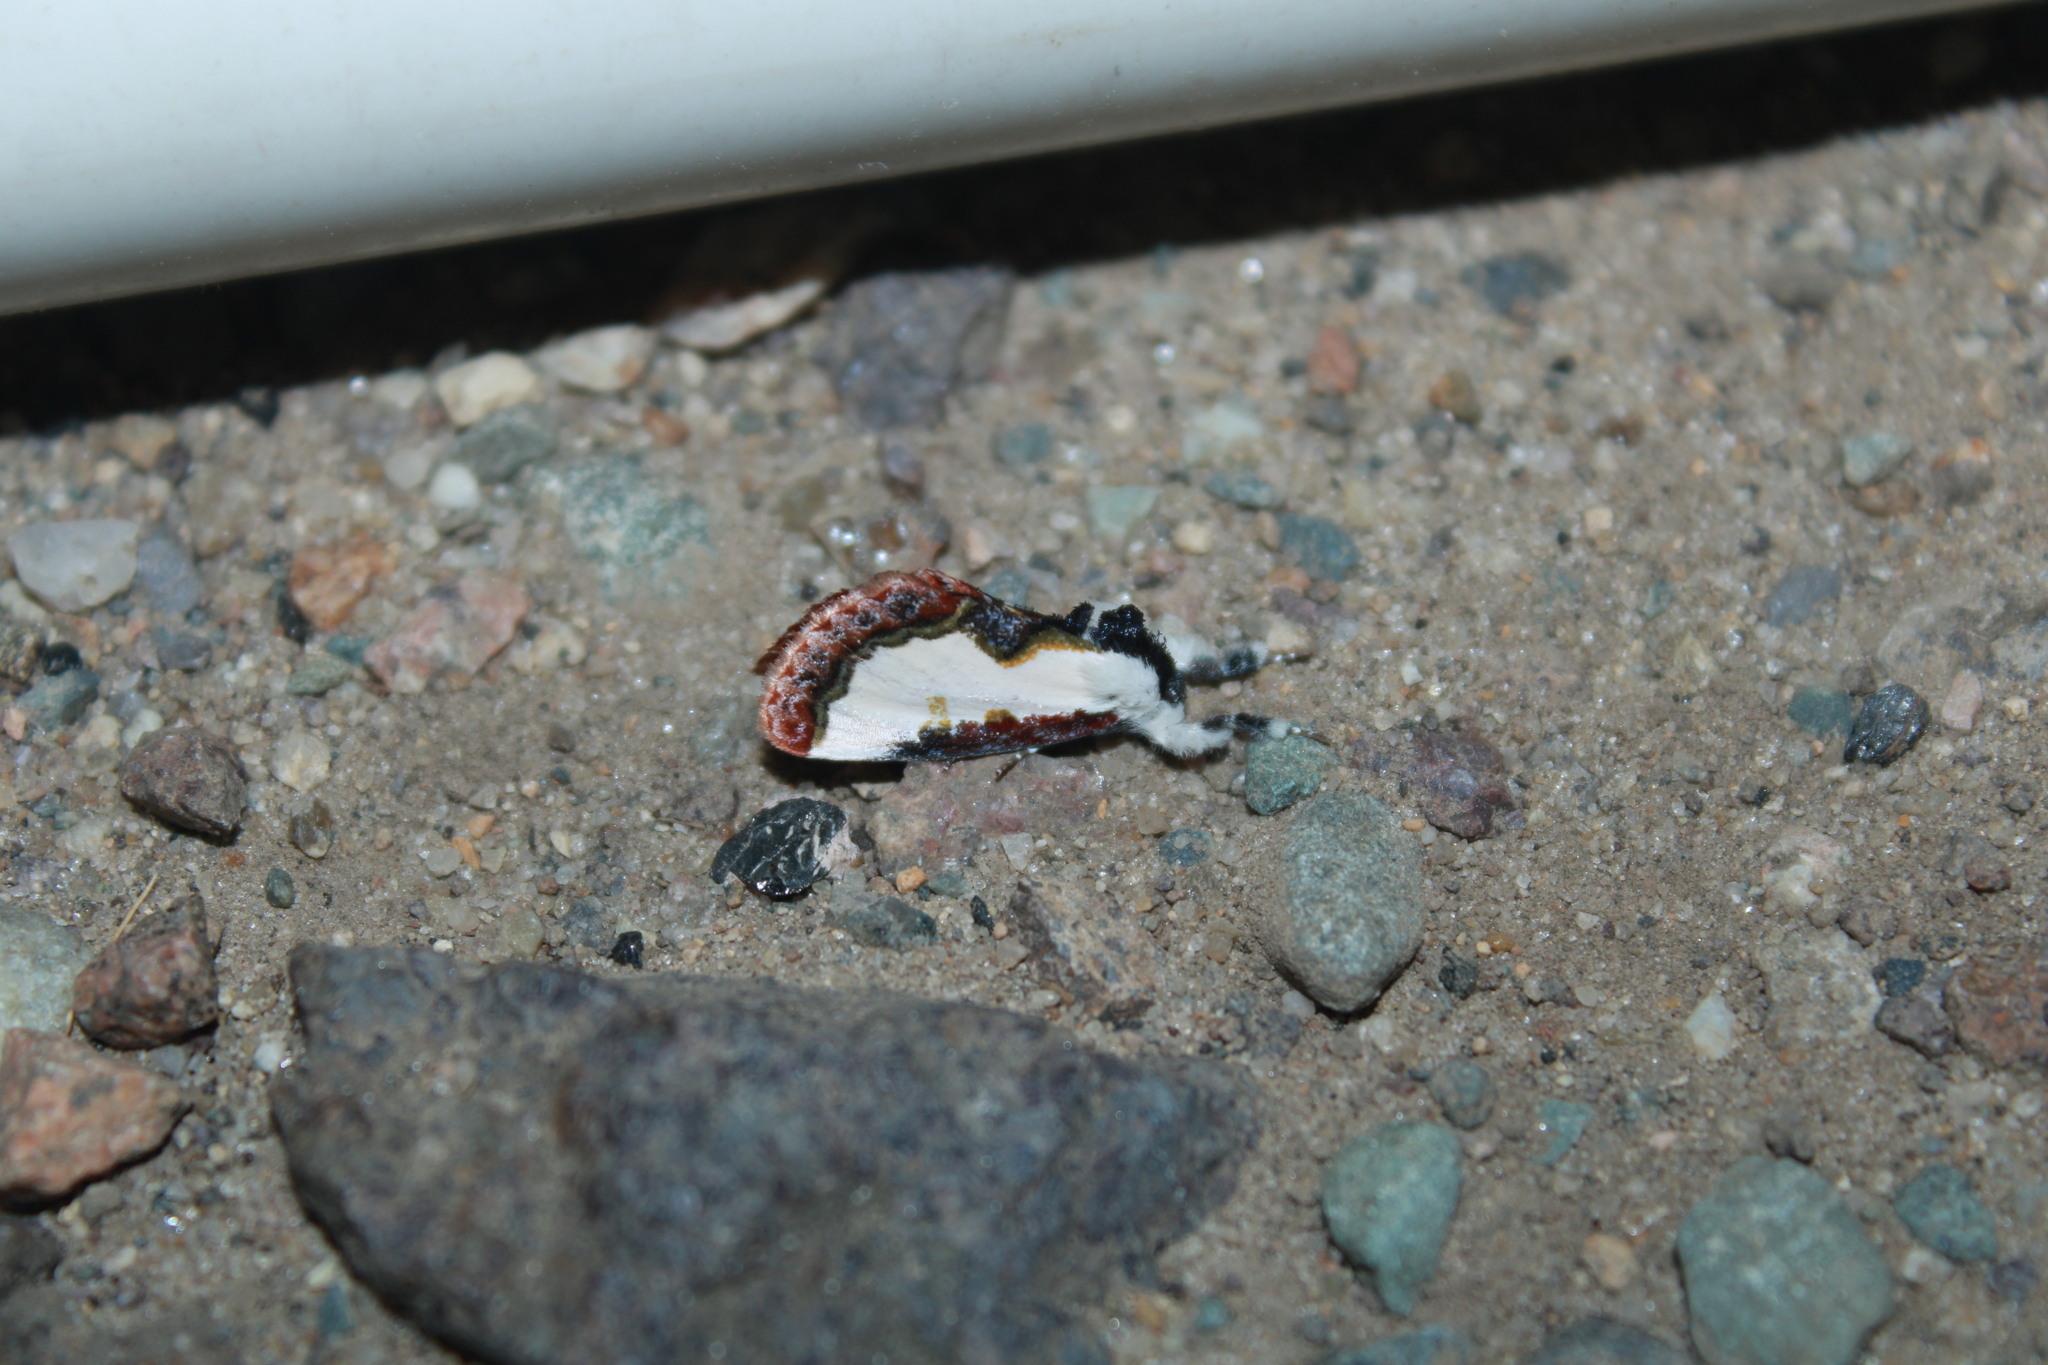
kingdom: Animalia
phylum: Arthropoda
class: Insecta
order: Lepidoptera
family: Noctuidae
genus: Eudryas
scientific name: Eudryas unio
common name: Pearly wood-nymph
